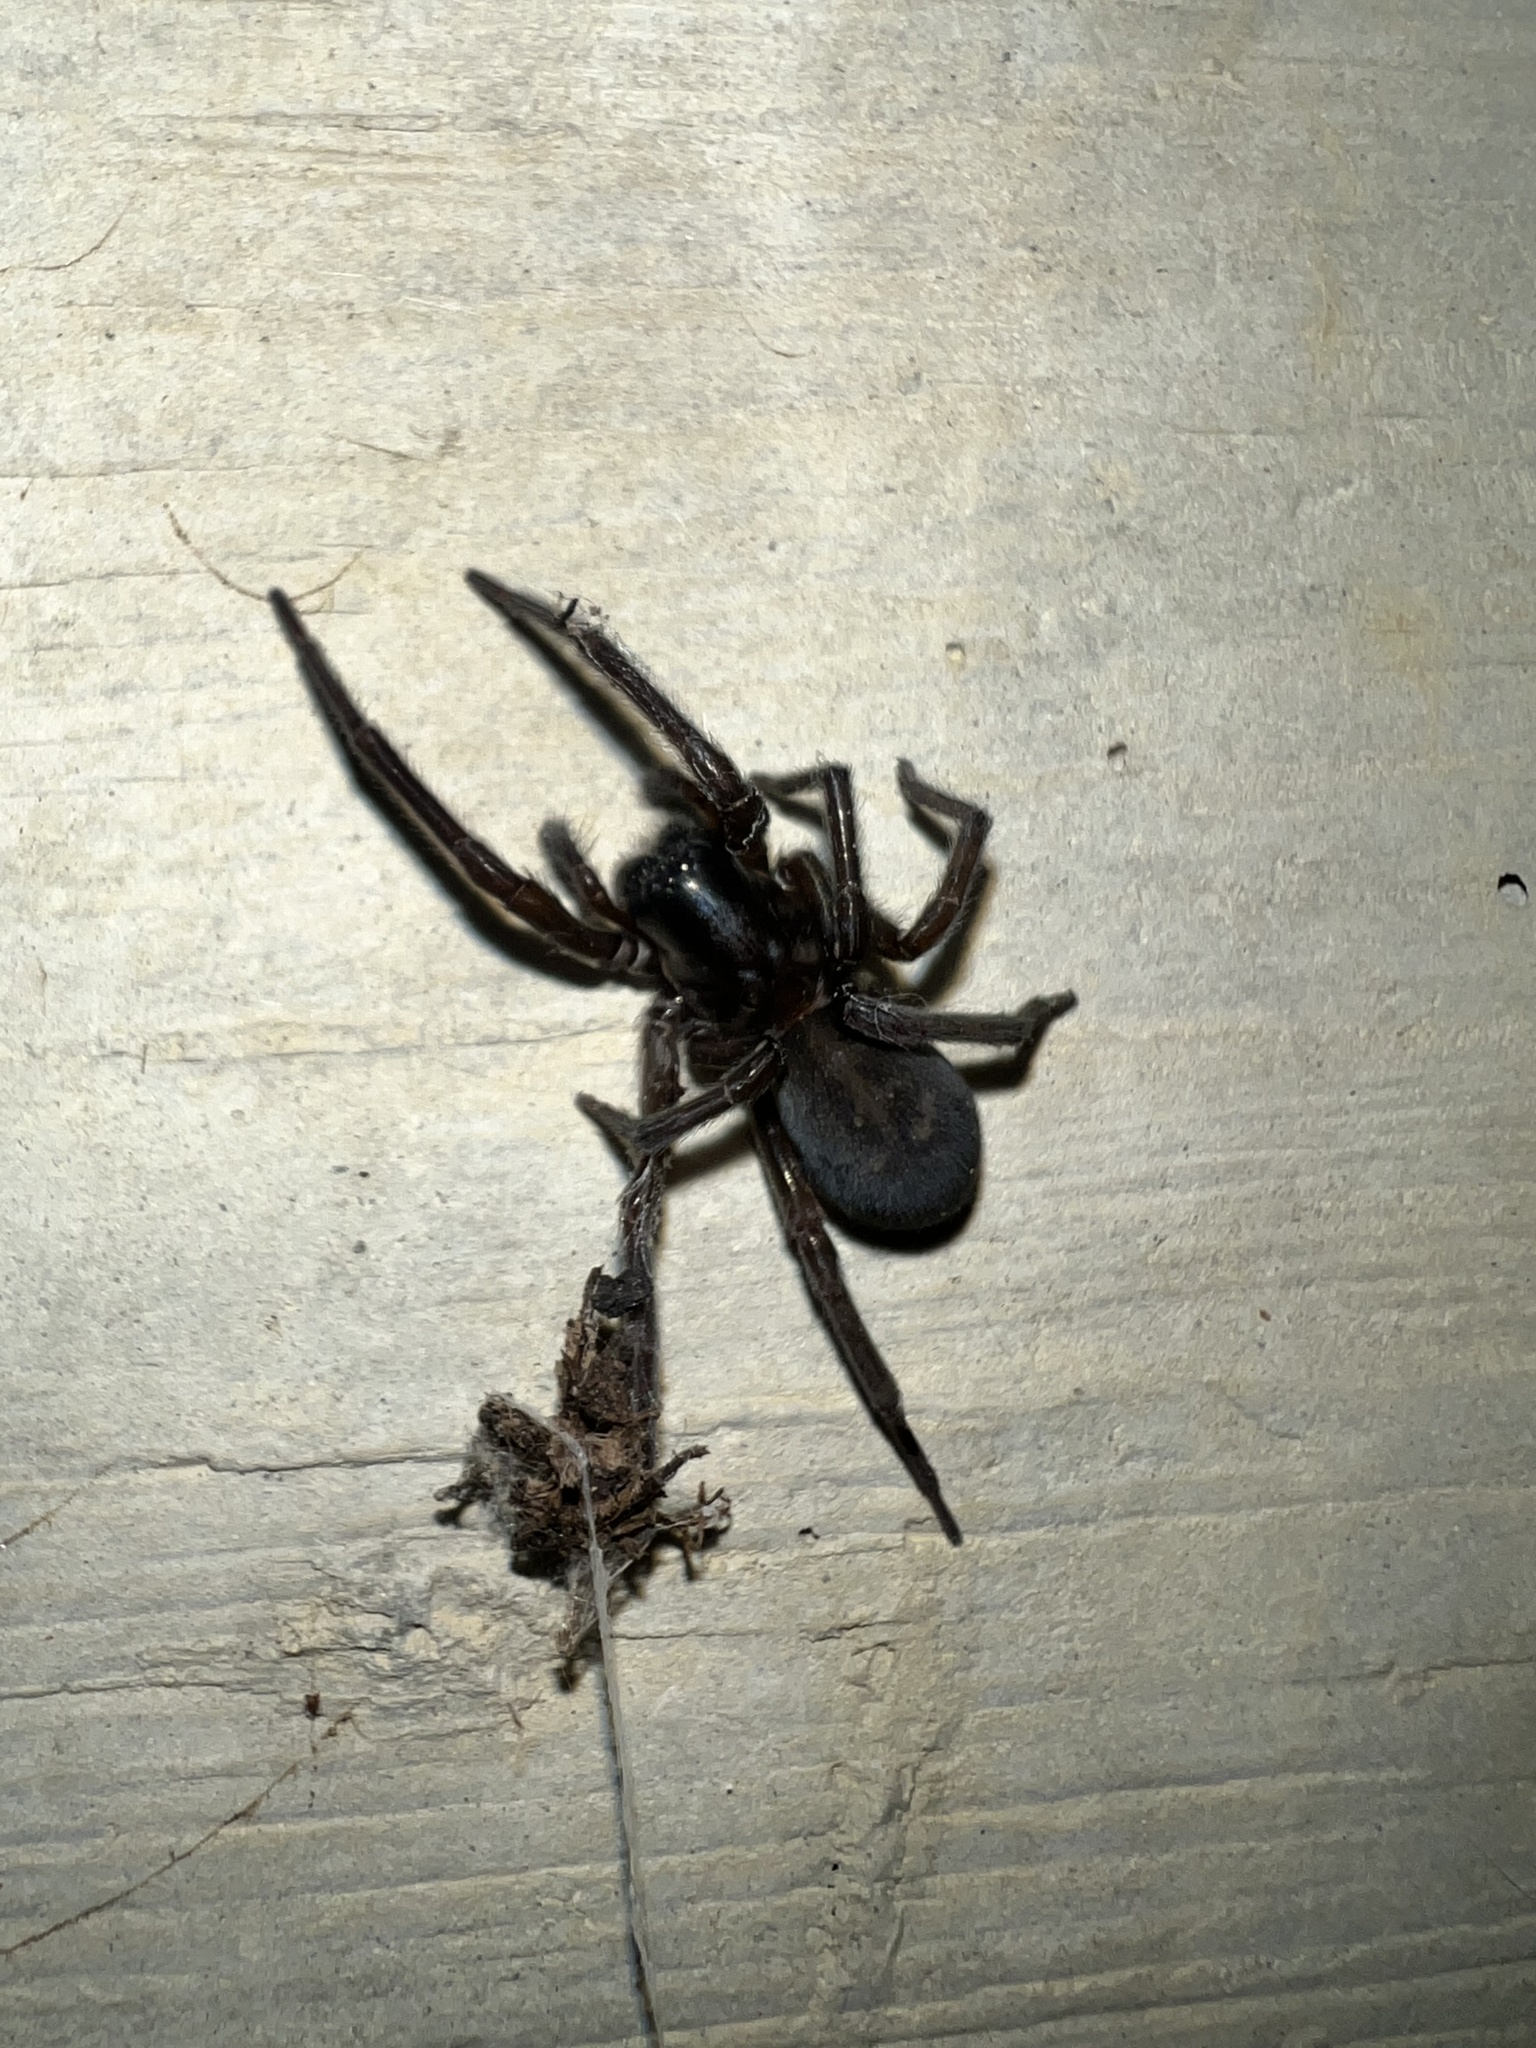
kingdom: Animalia
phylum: Arthropoda
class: Arachnida
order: Araneae
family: Amaurobiidae
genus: Amaurobius
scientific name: Amaurobius ferox
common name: Black laceweaver
